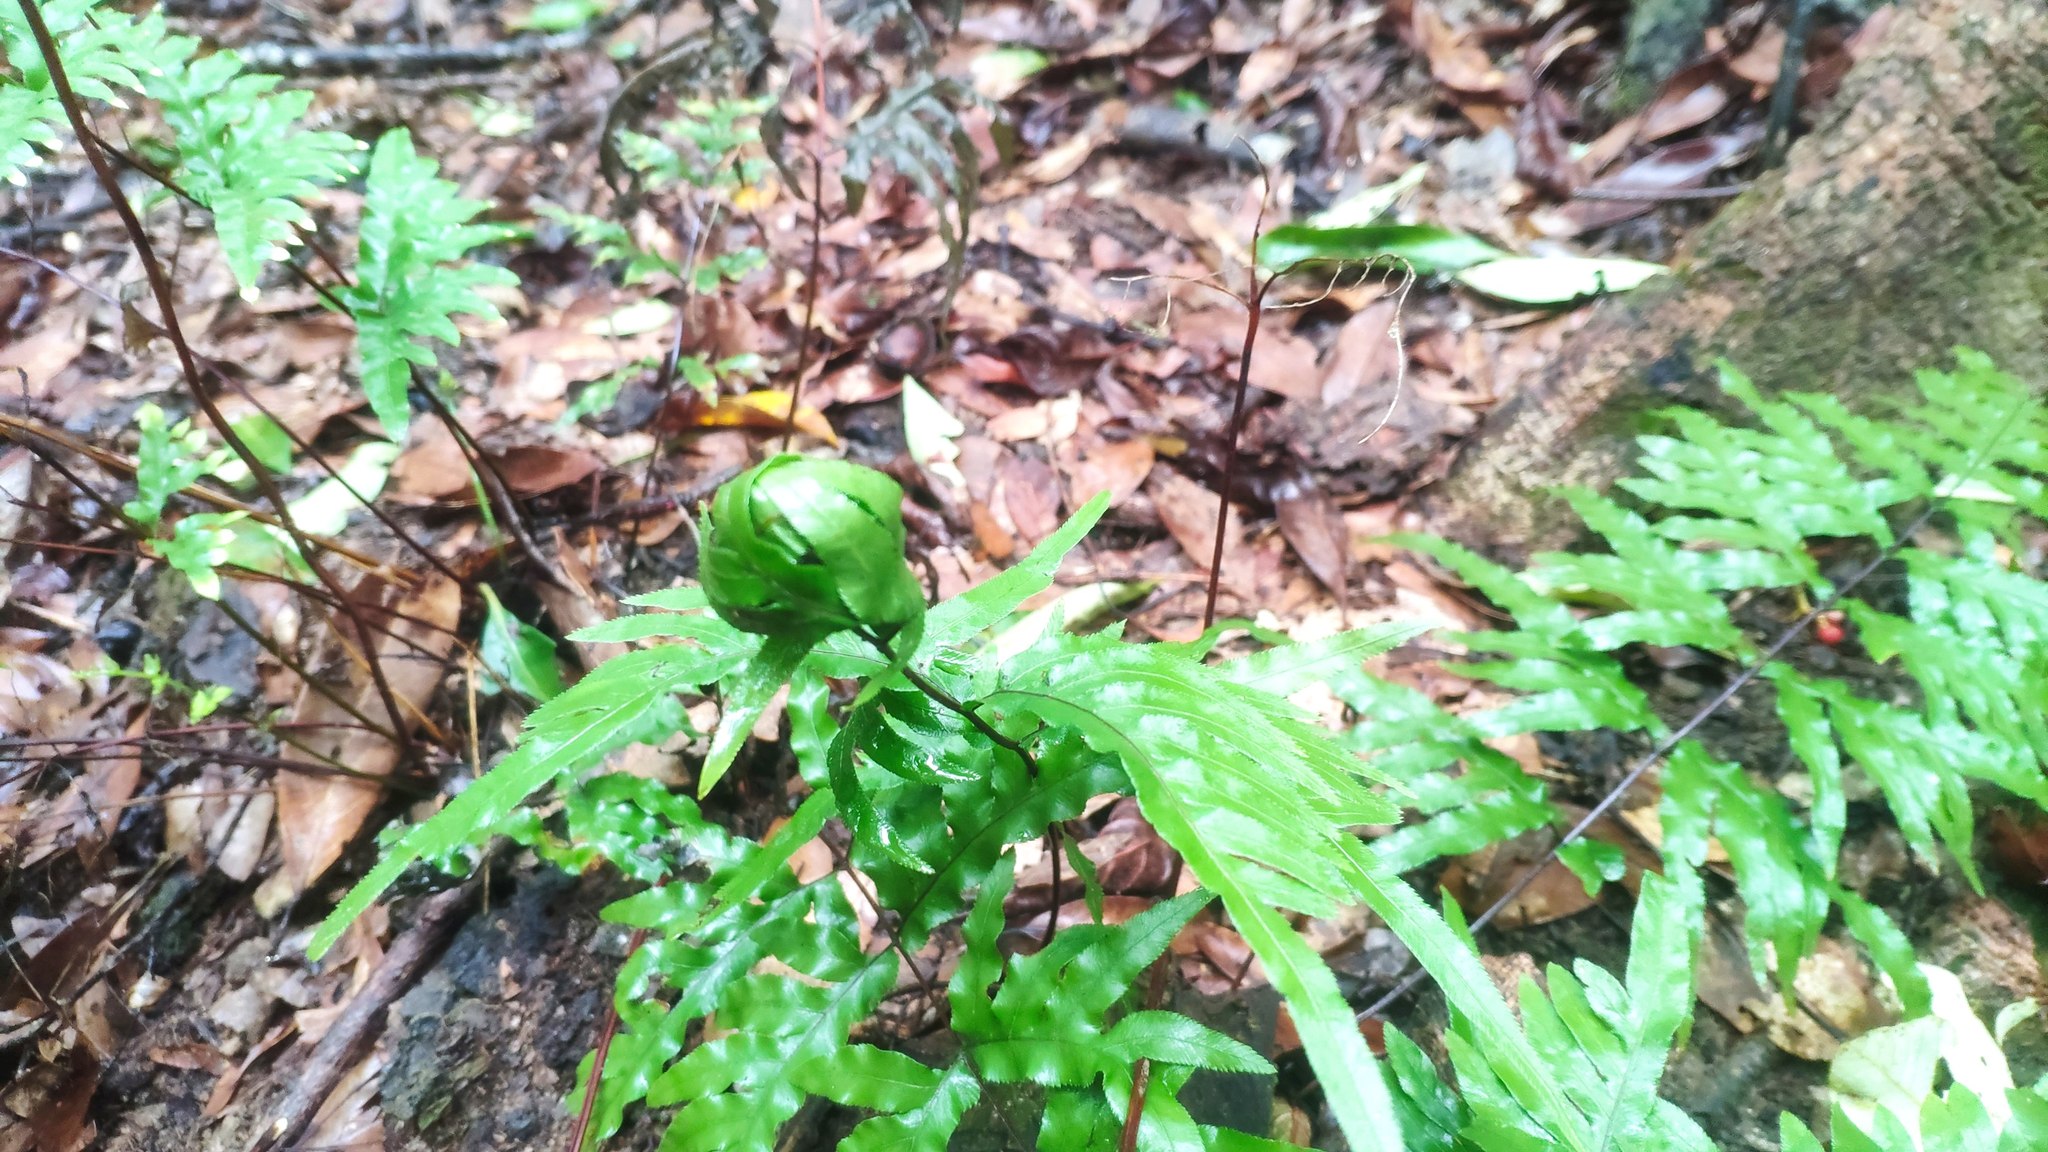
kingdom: Plantae
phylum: Tracheophyta
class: Polypodiopsida
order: Polypodiales
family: Pteridaceae
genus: Pteris
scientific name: Pteris semipinnata
